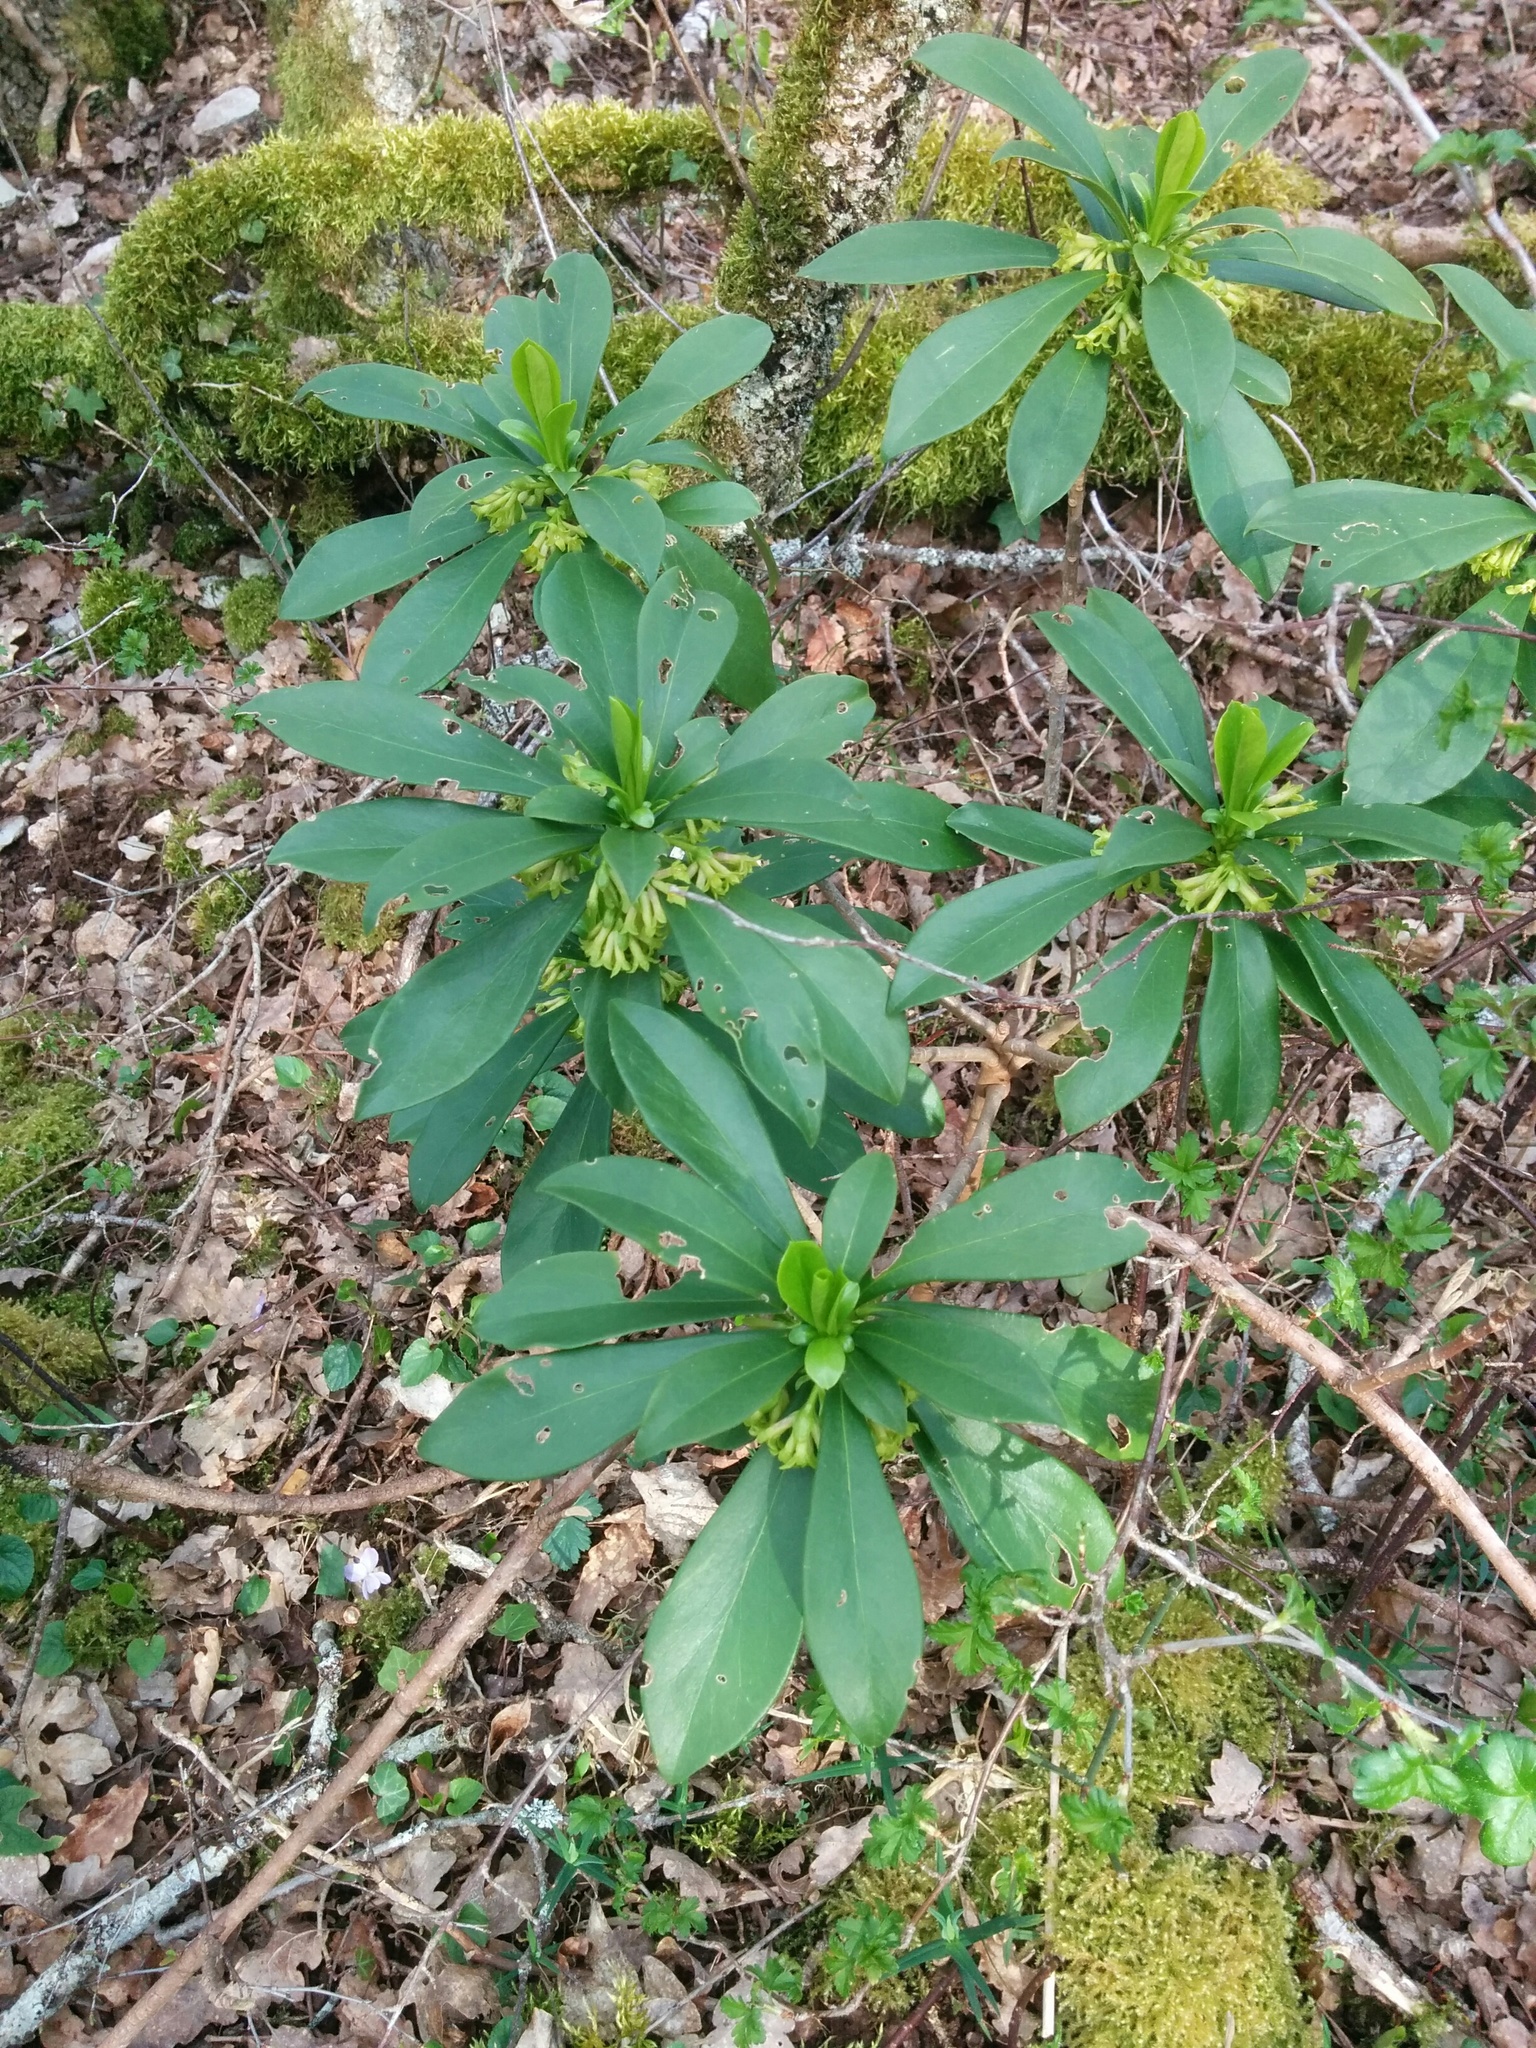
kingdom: Plantae
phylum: Tracheophyta
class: Magnoliopsida
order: Malvales
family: Thymelaeaceae
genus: Daphne
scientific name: Daphne laureola
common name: Spurge-laurel
